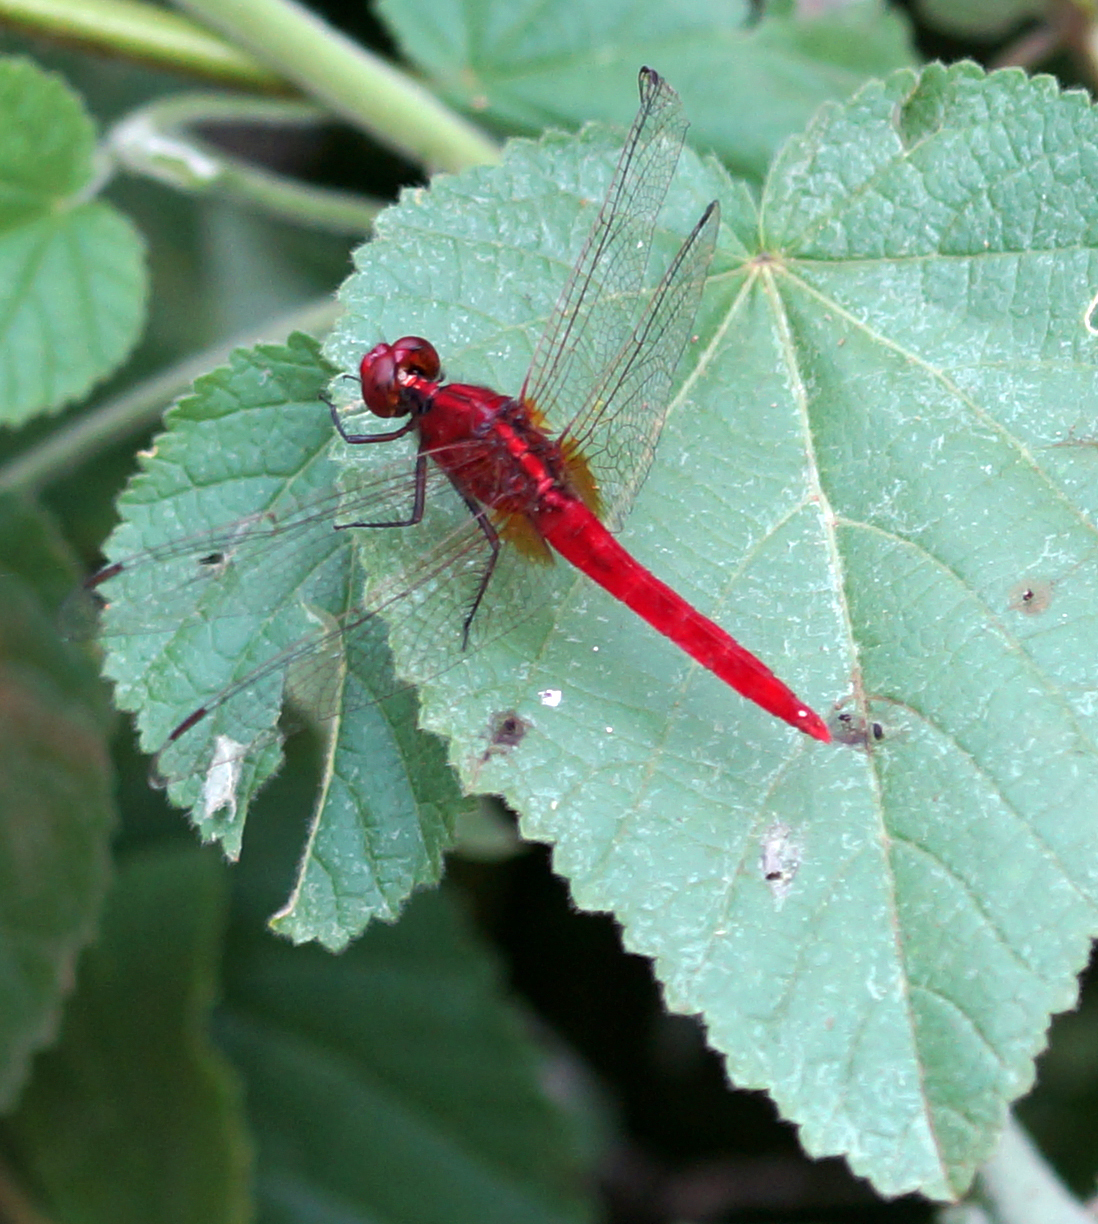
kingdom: Animalia
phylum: Arthropoda
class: Insecta
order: Odonata
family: Libellulidae
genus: Rhodothemis
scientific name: Rhodothemis rufa
